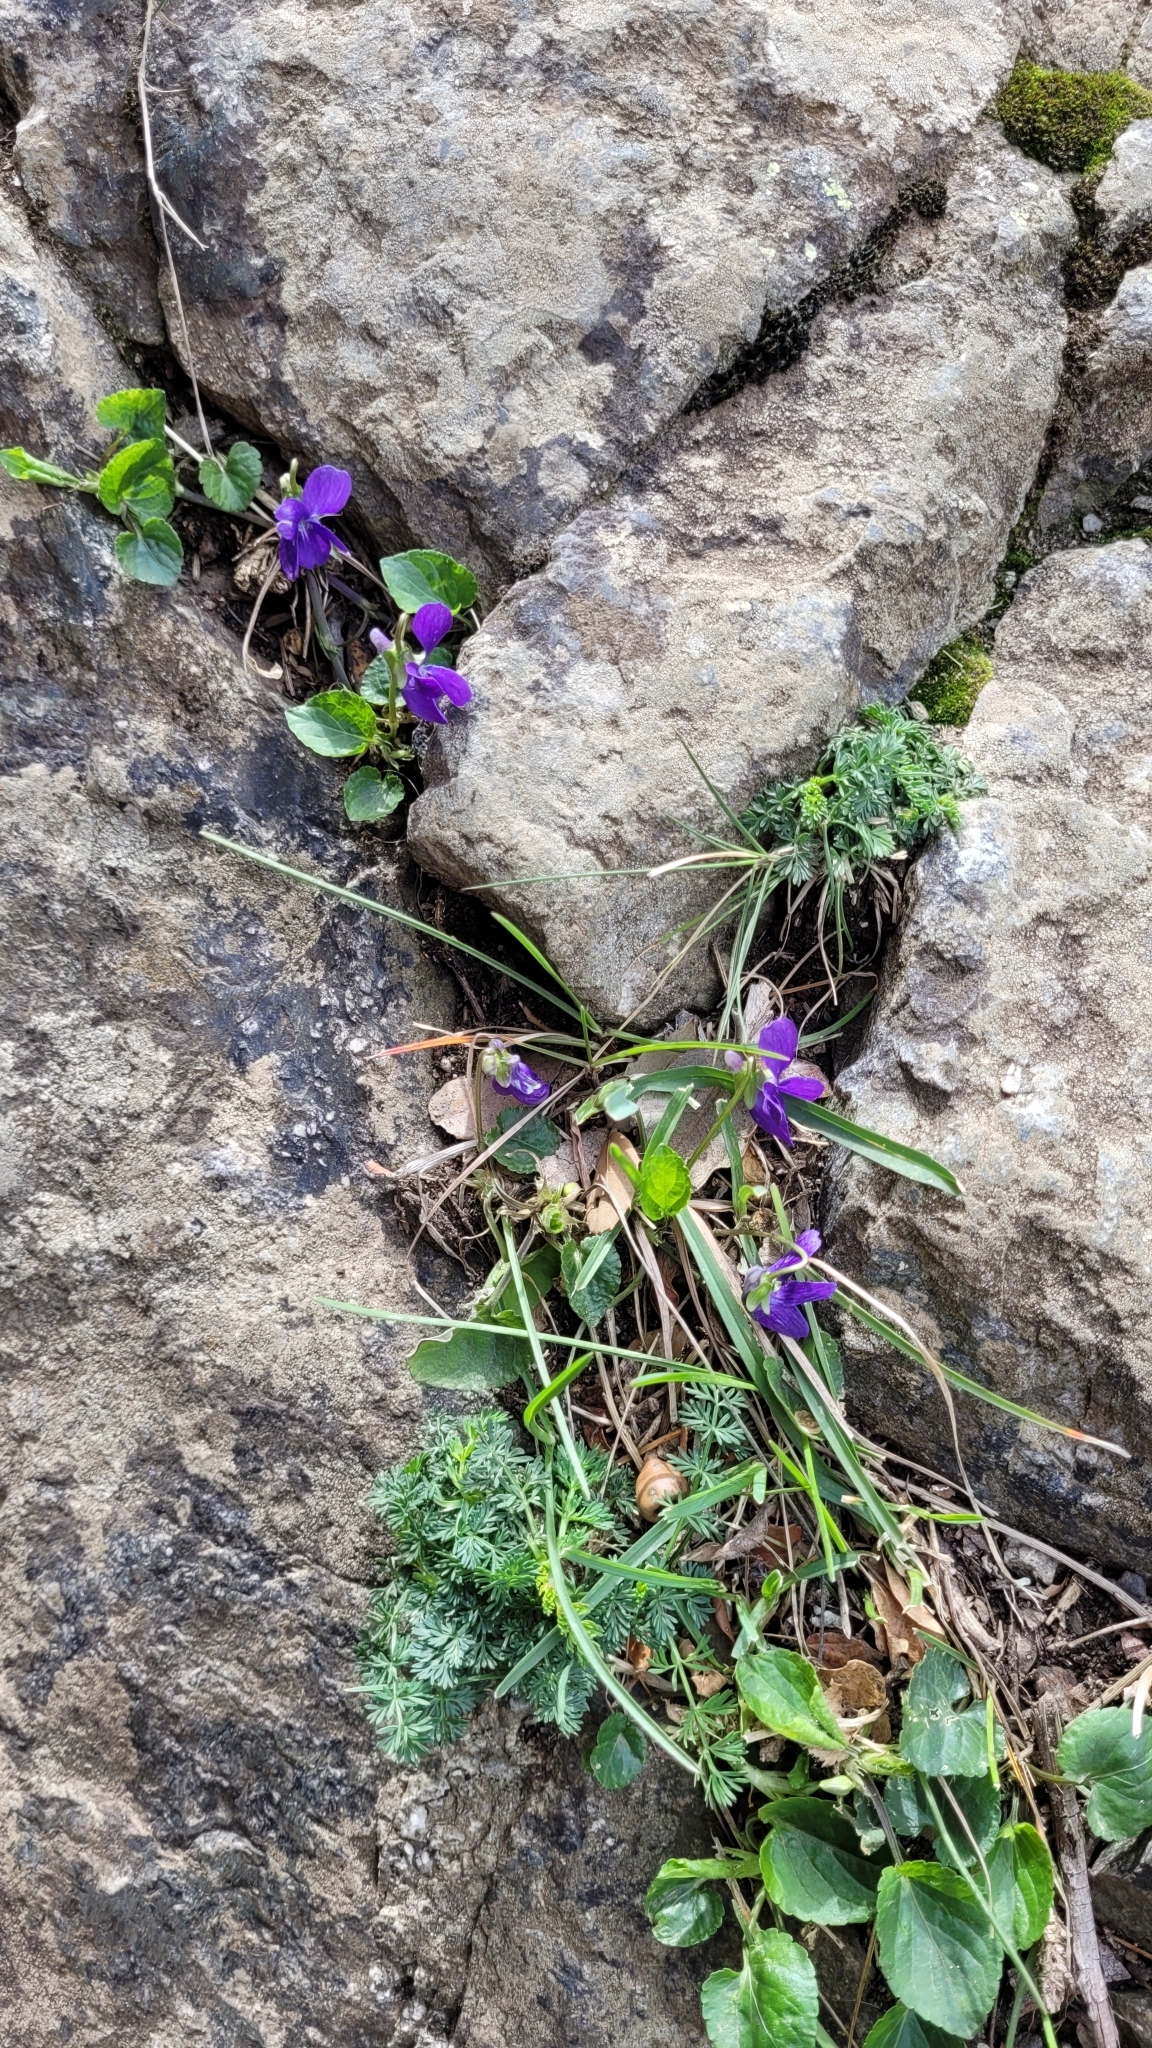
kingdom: Plantae
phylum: Tracheophyta
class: Magnoliopsida
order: Malpighiales
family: Violaceae
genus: Viola
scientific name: Viola odorata
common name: Sweet violet
